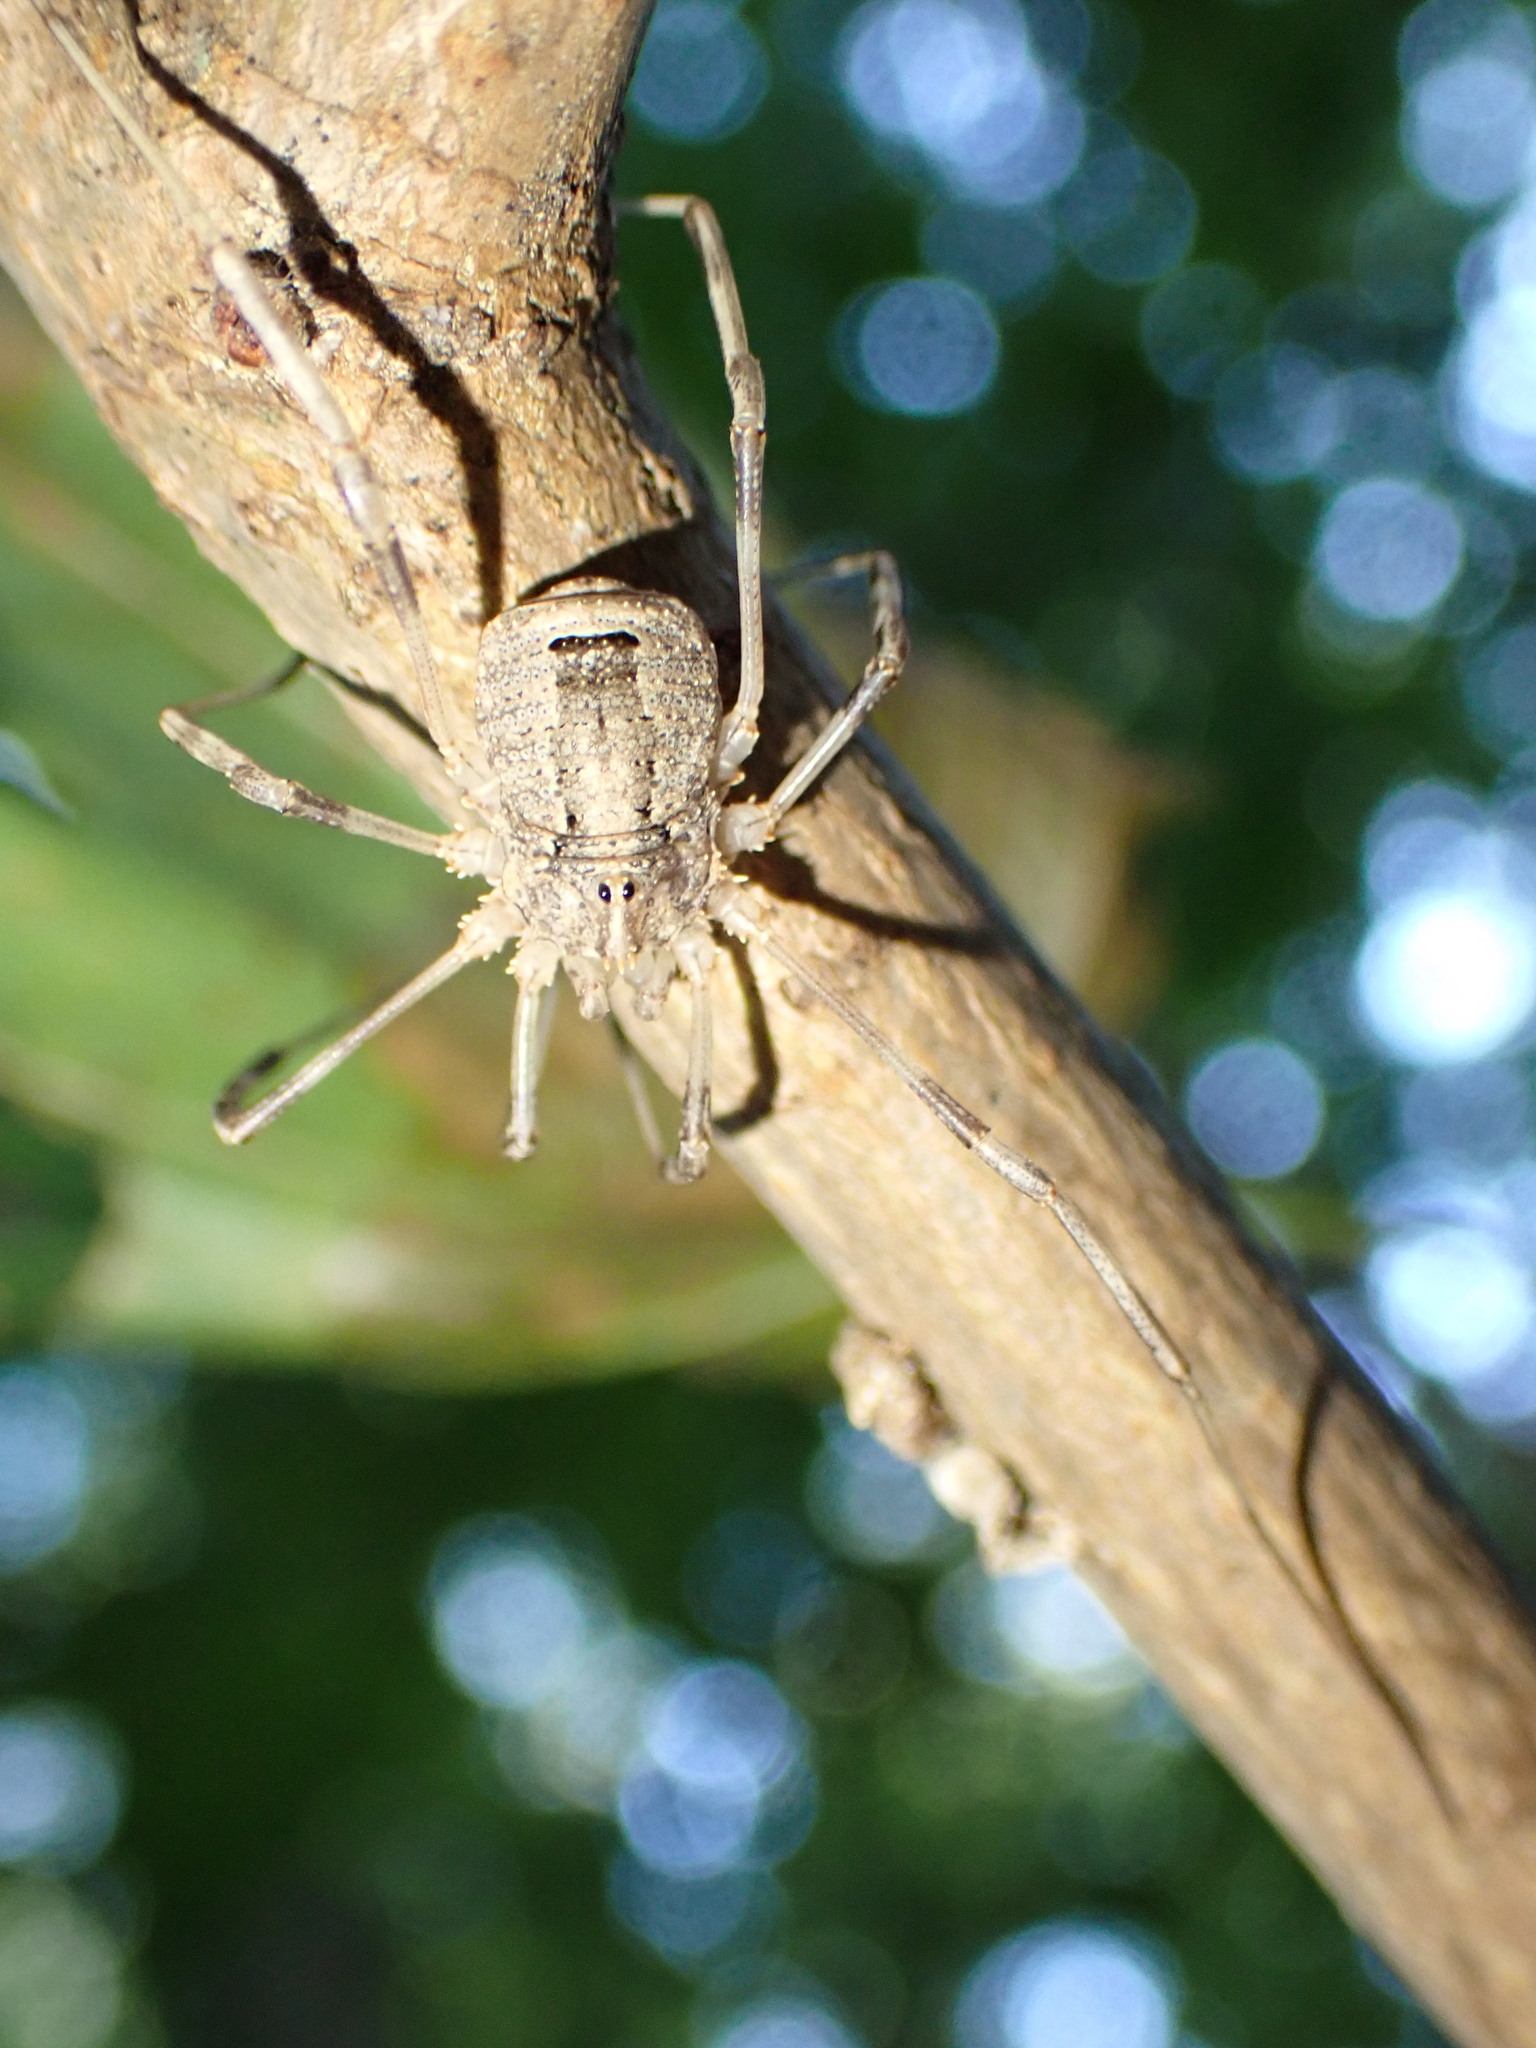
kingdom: Animalia
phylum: Arthropoda
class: Arachnida
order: Opiliones
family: Phalangiidae
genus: Odiellus
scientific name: Odiellus spinosus
